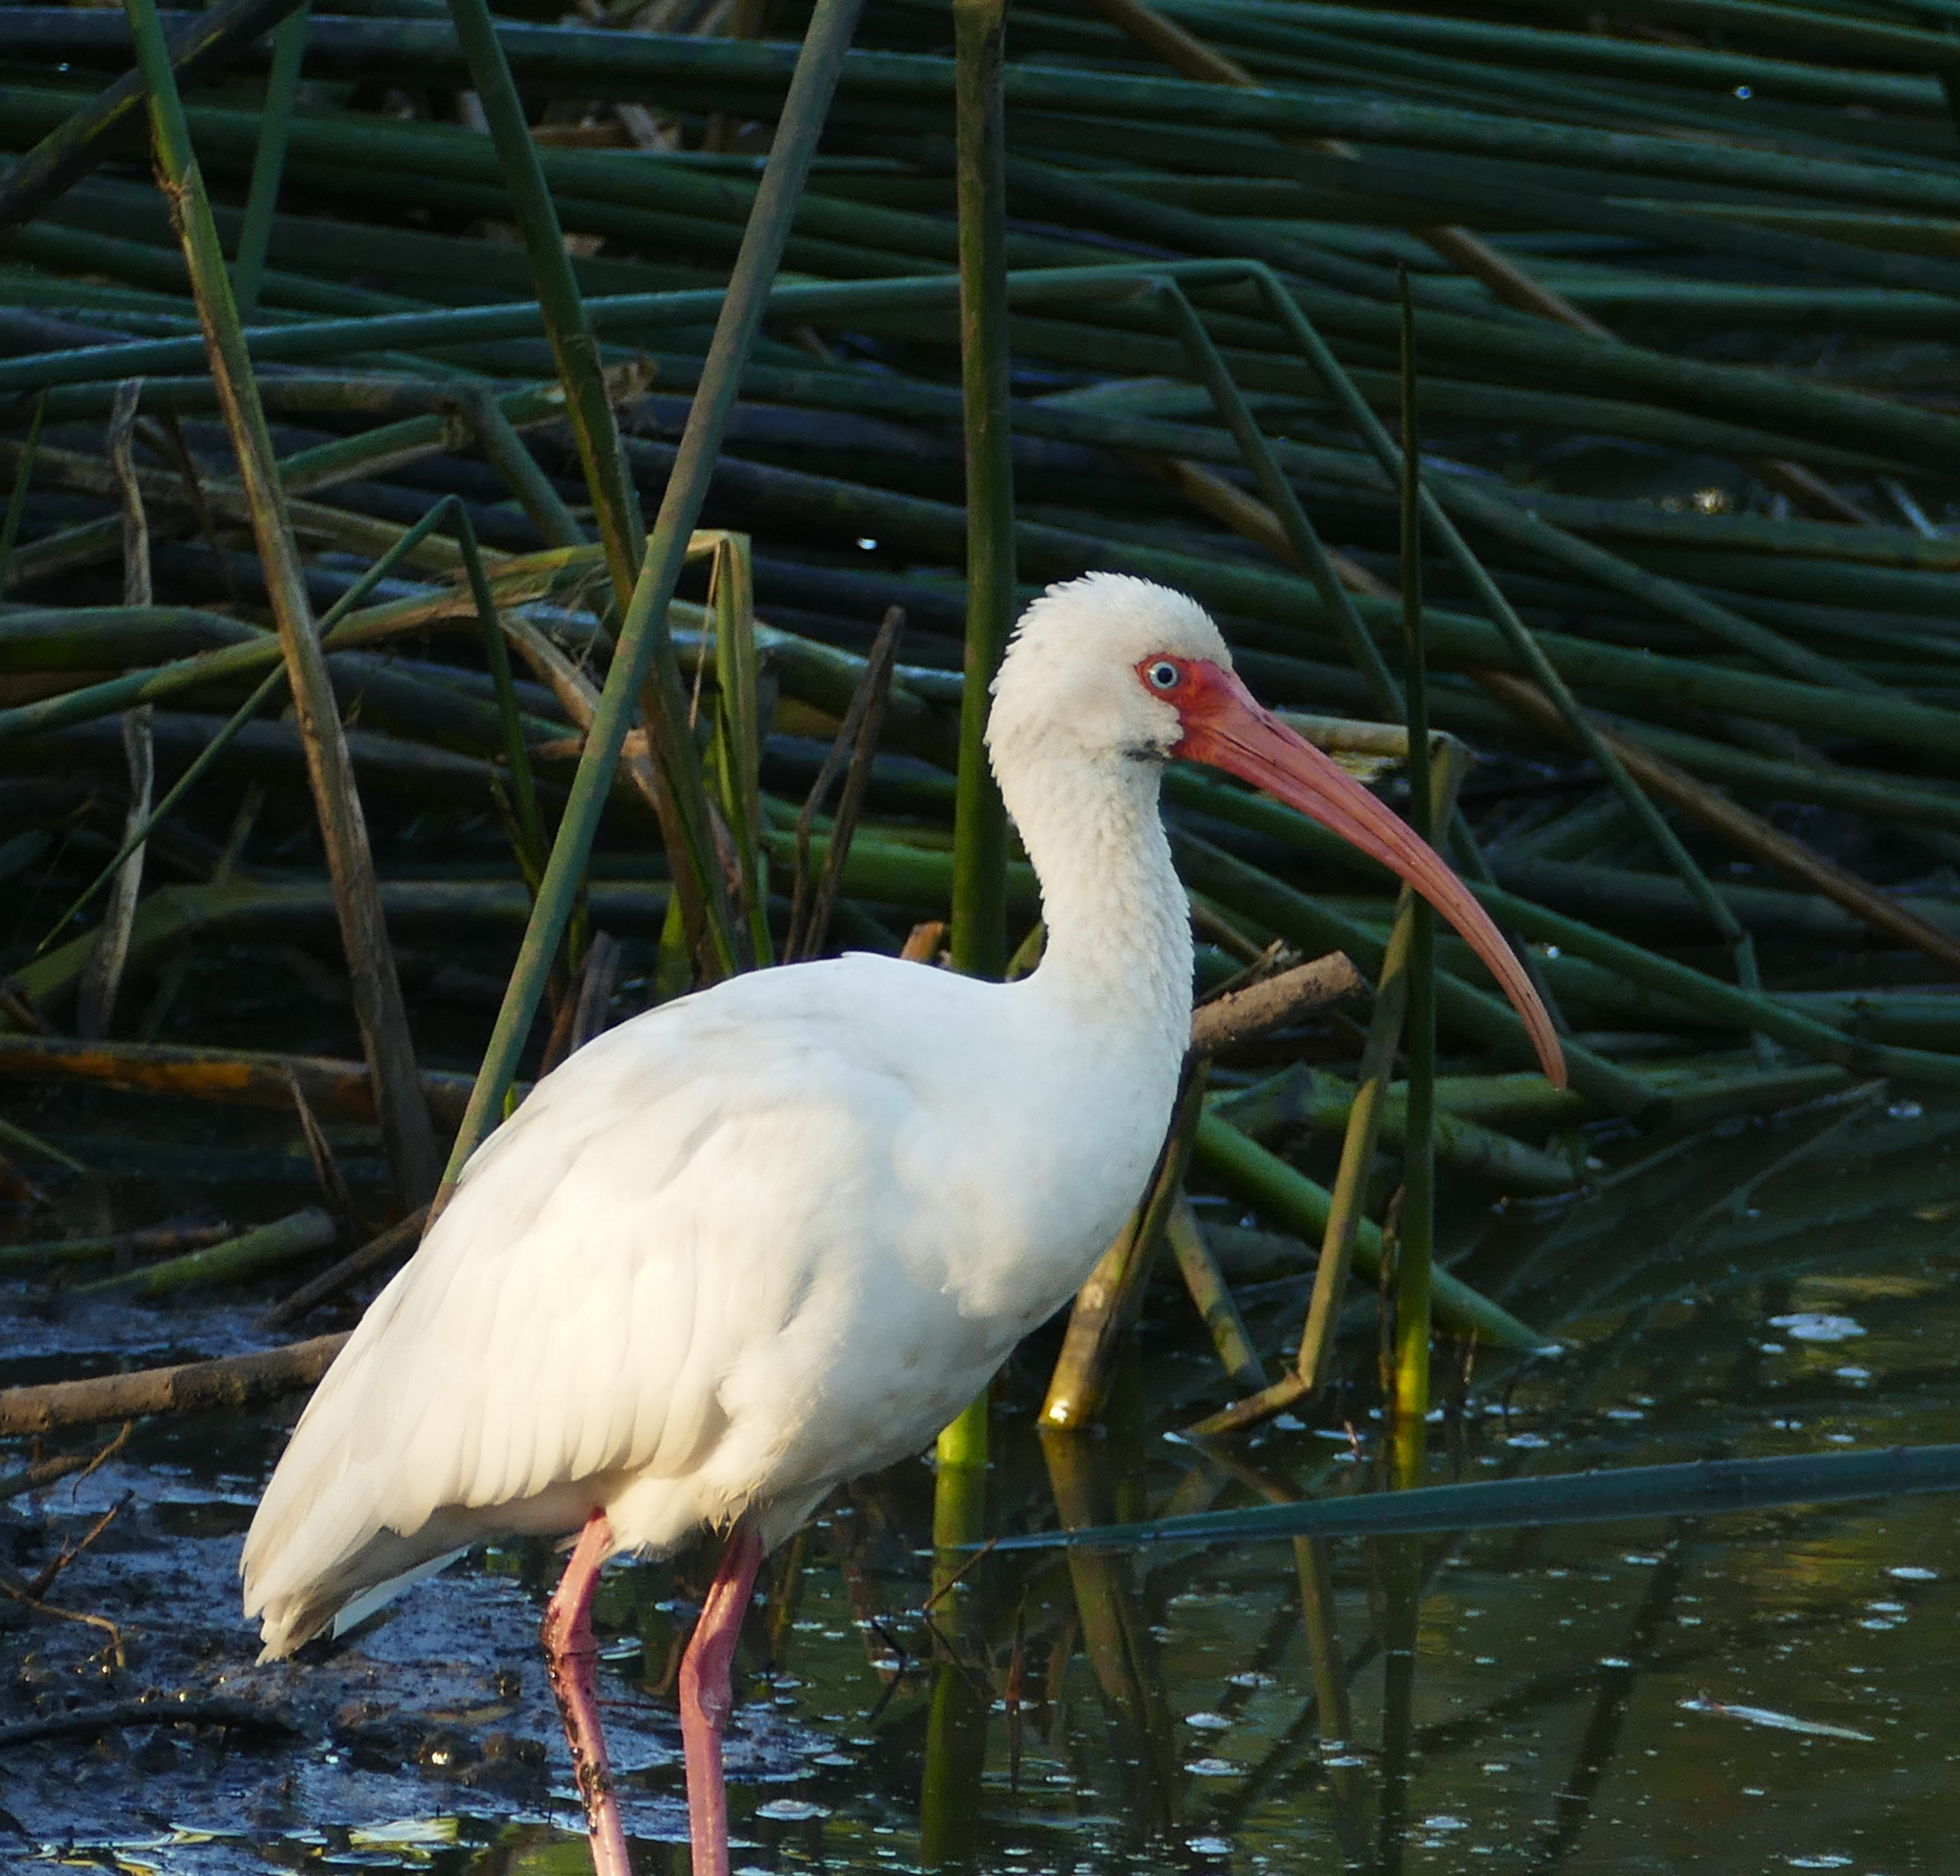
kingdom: Animalia
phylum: Chordata
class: Aves
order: Pelecaniformes
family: Threskiornithidae
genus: Eudocimus
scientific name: Eudocimus albus
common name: White ibis
